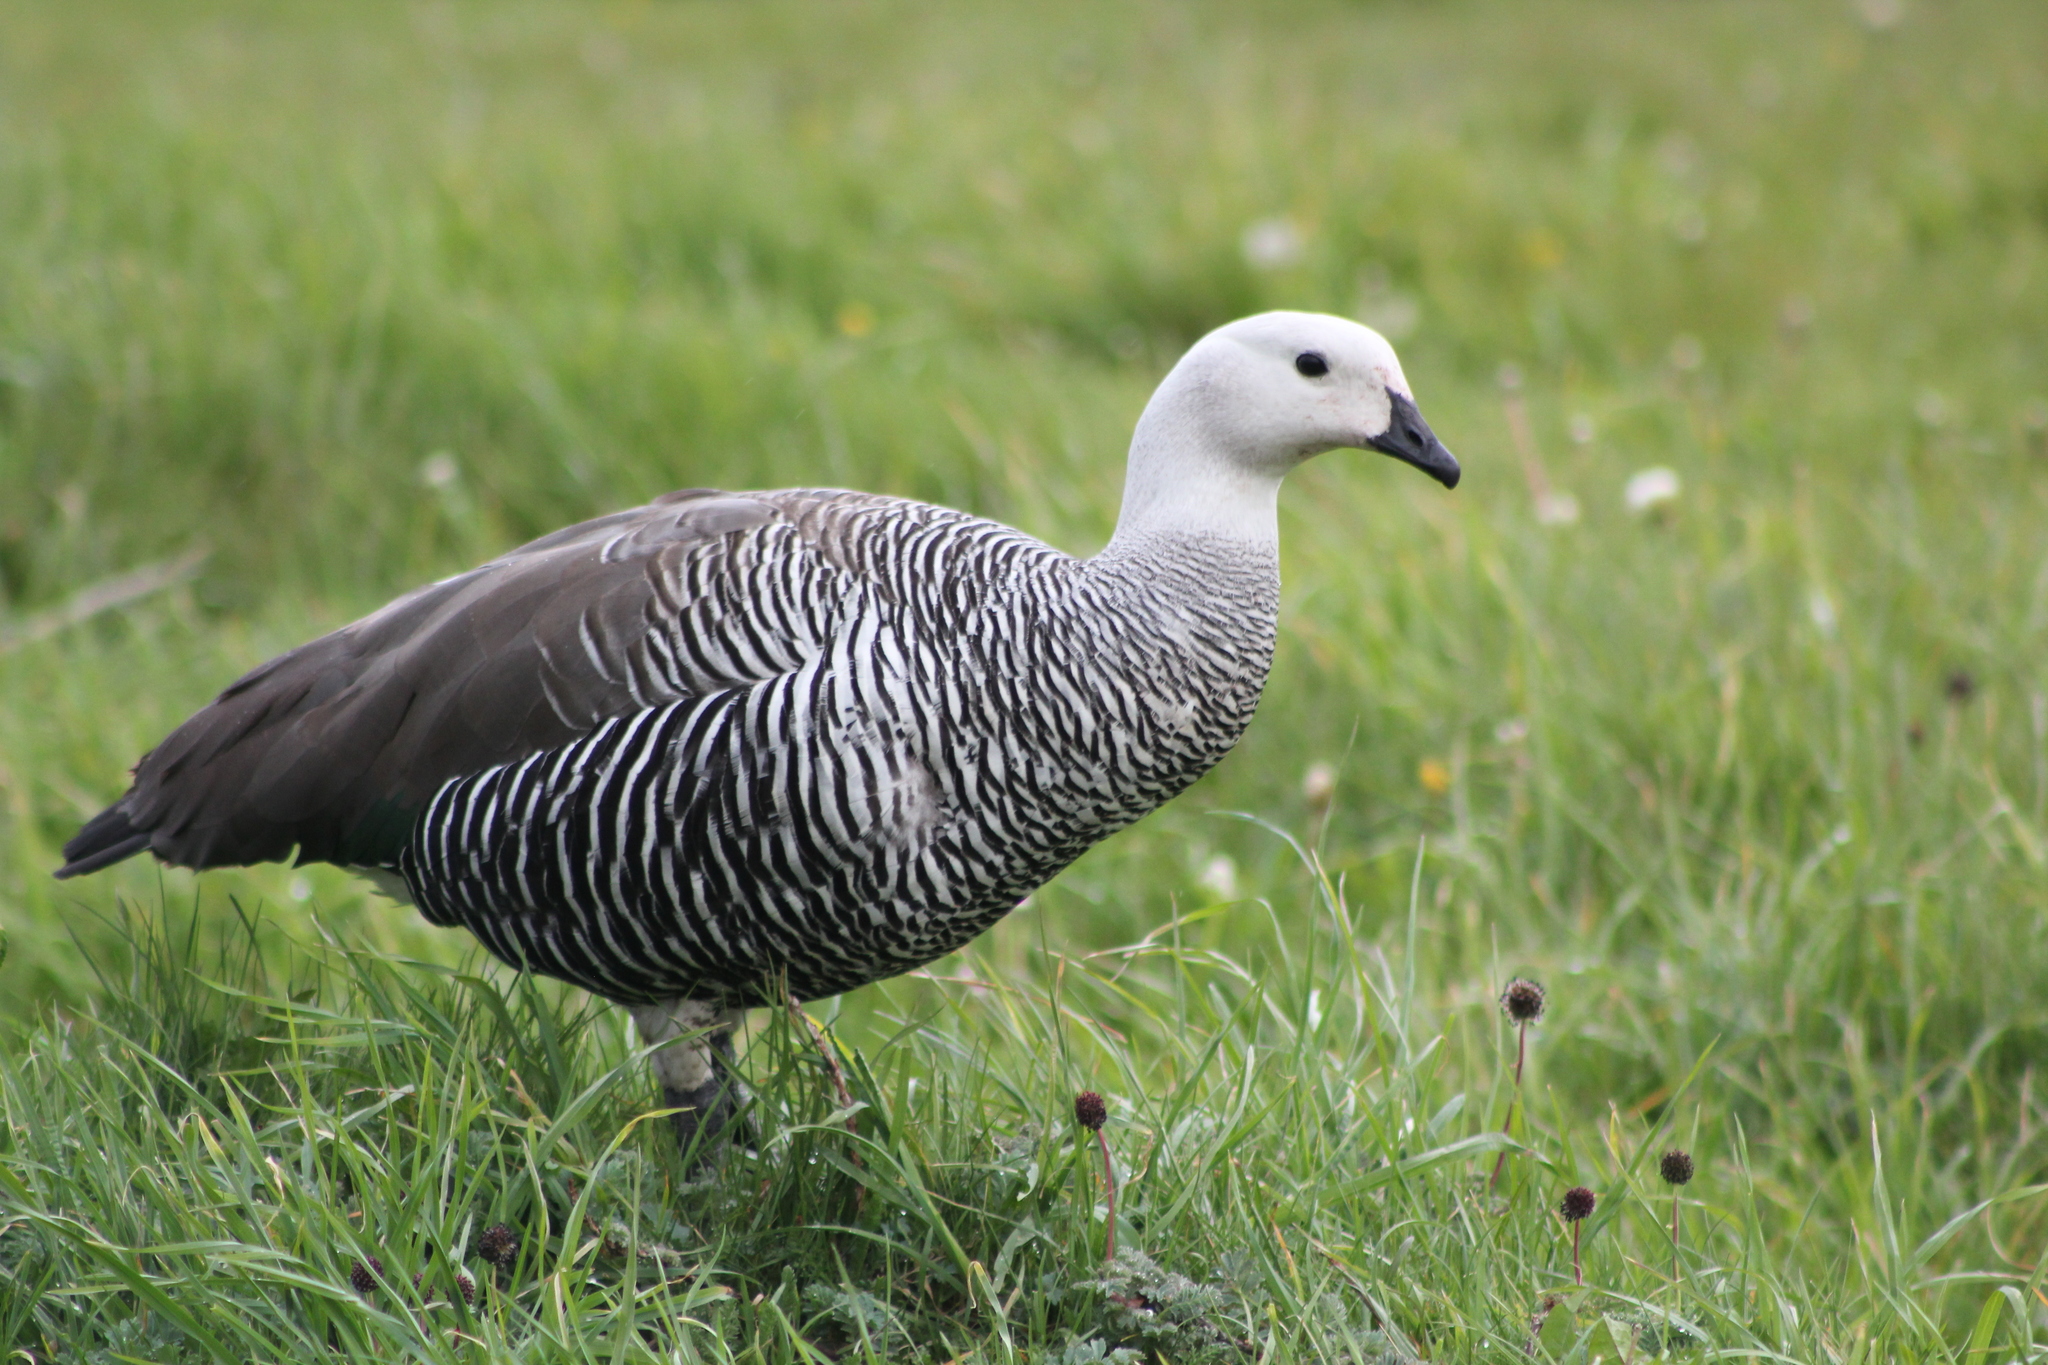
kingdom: Animalia
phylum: Chordata
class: Aves
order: Anseriformes
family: Anatidae
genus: Chloephaga
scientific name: Chloephaga picta
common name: Upland goose
